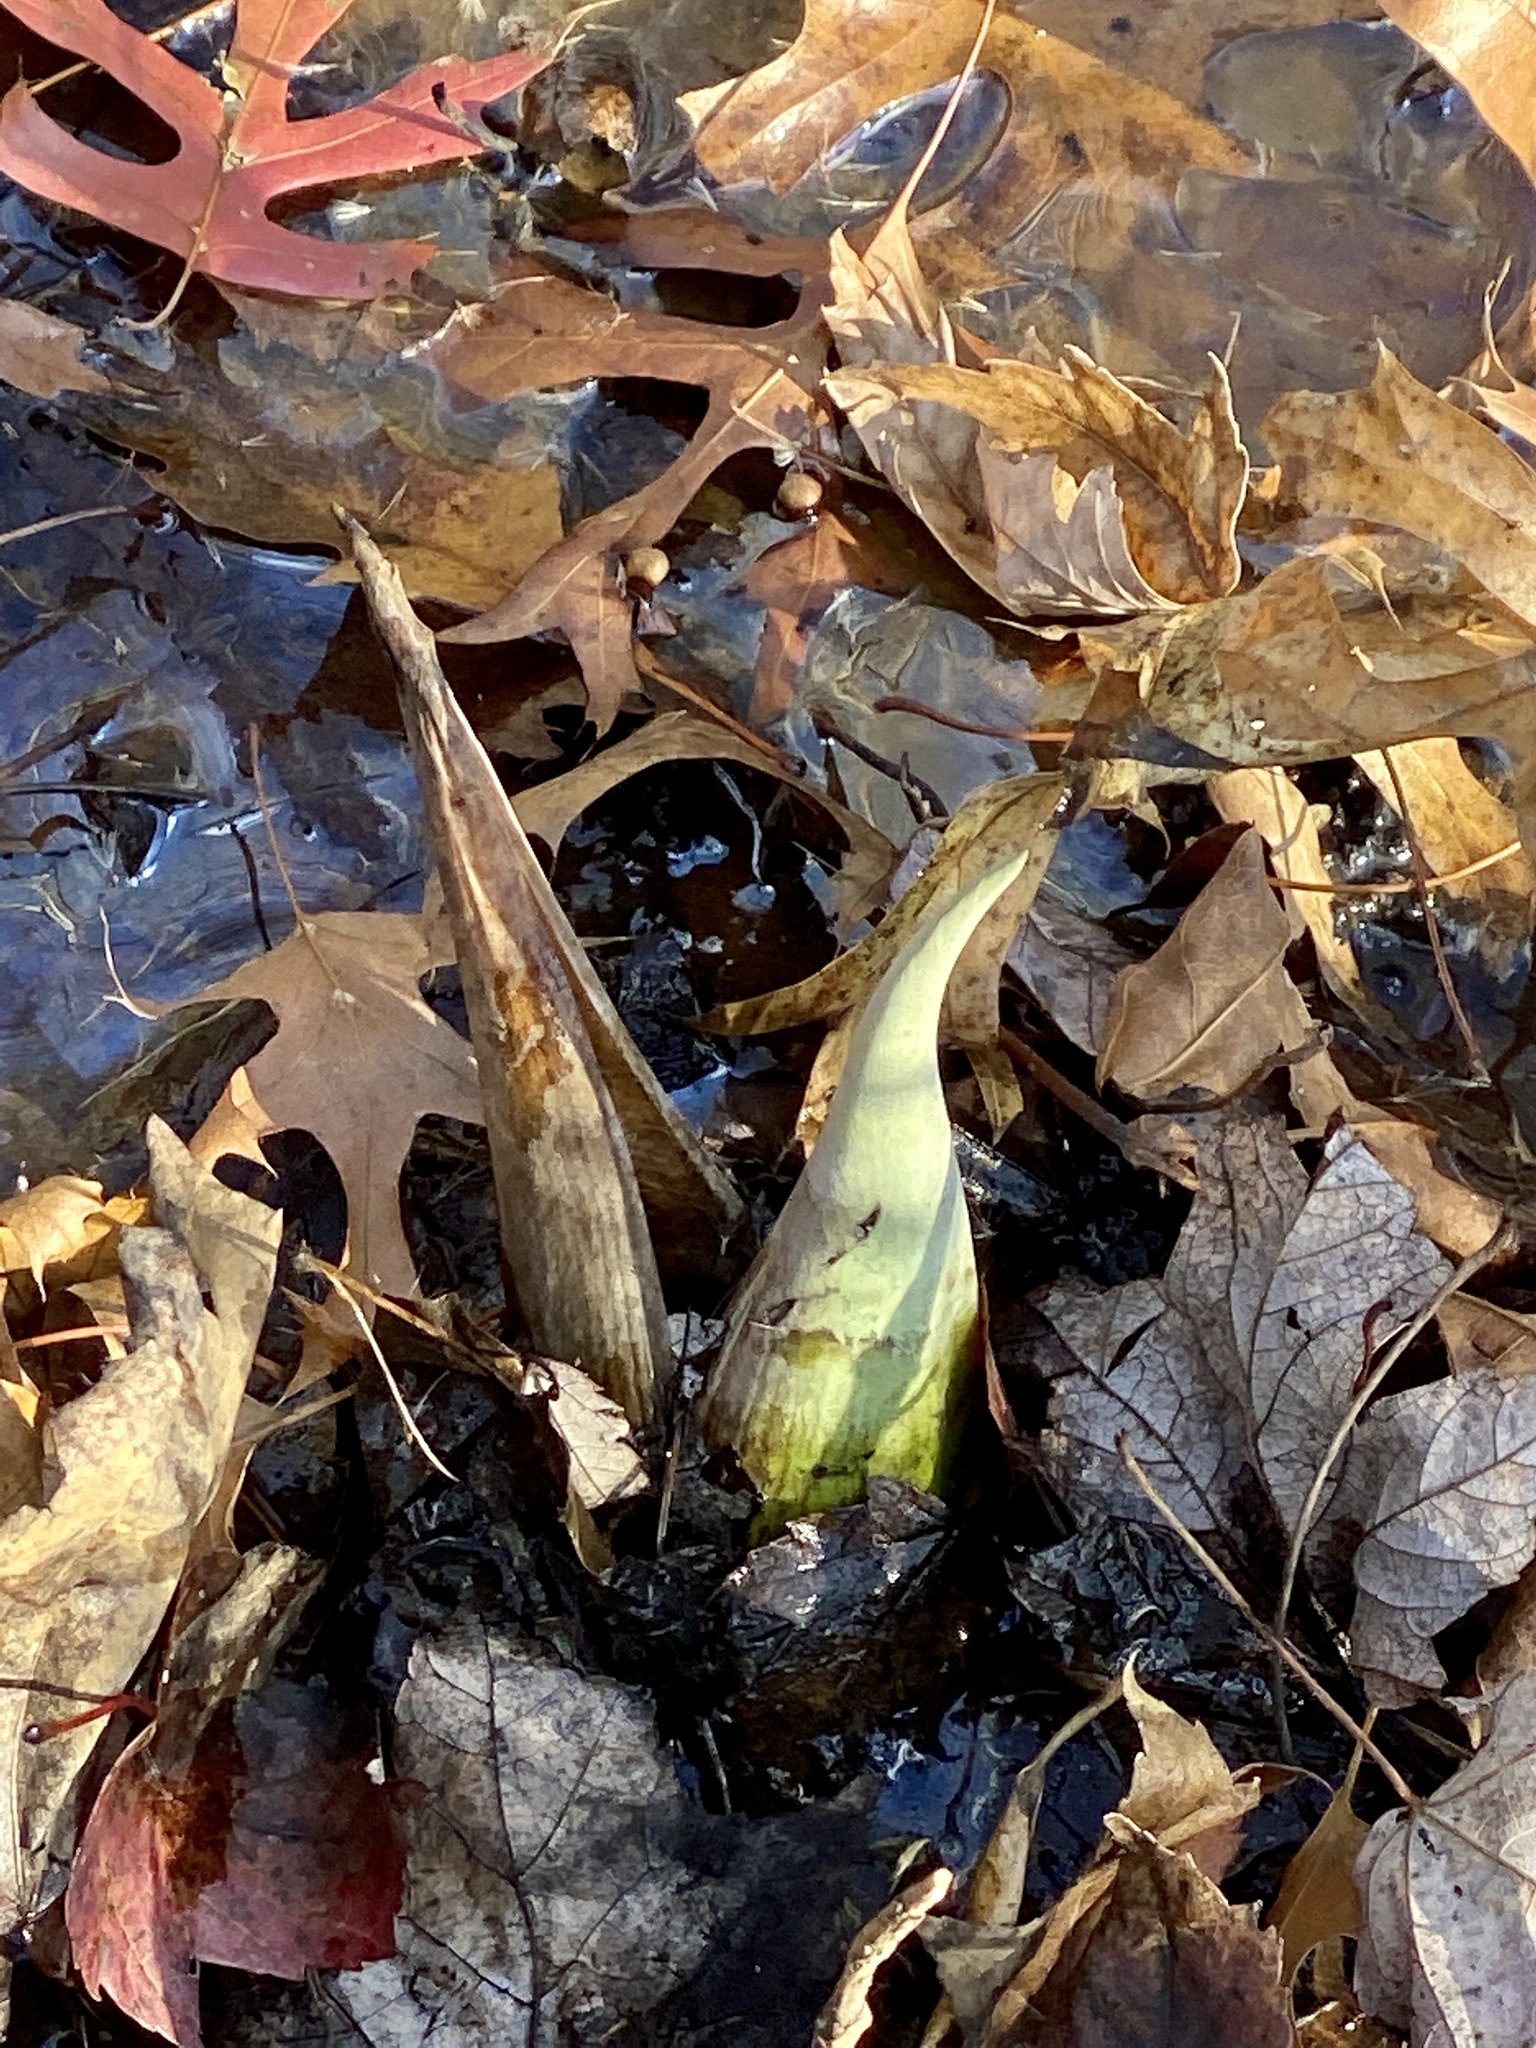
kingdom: Plantae
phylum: Tracheophyta
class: Liliopsida
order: Alismatales
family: Araceae
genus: Symplocarpus
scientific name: Symplocarpus foetidus
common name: Eastern skunk cabbage
